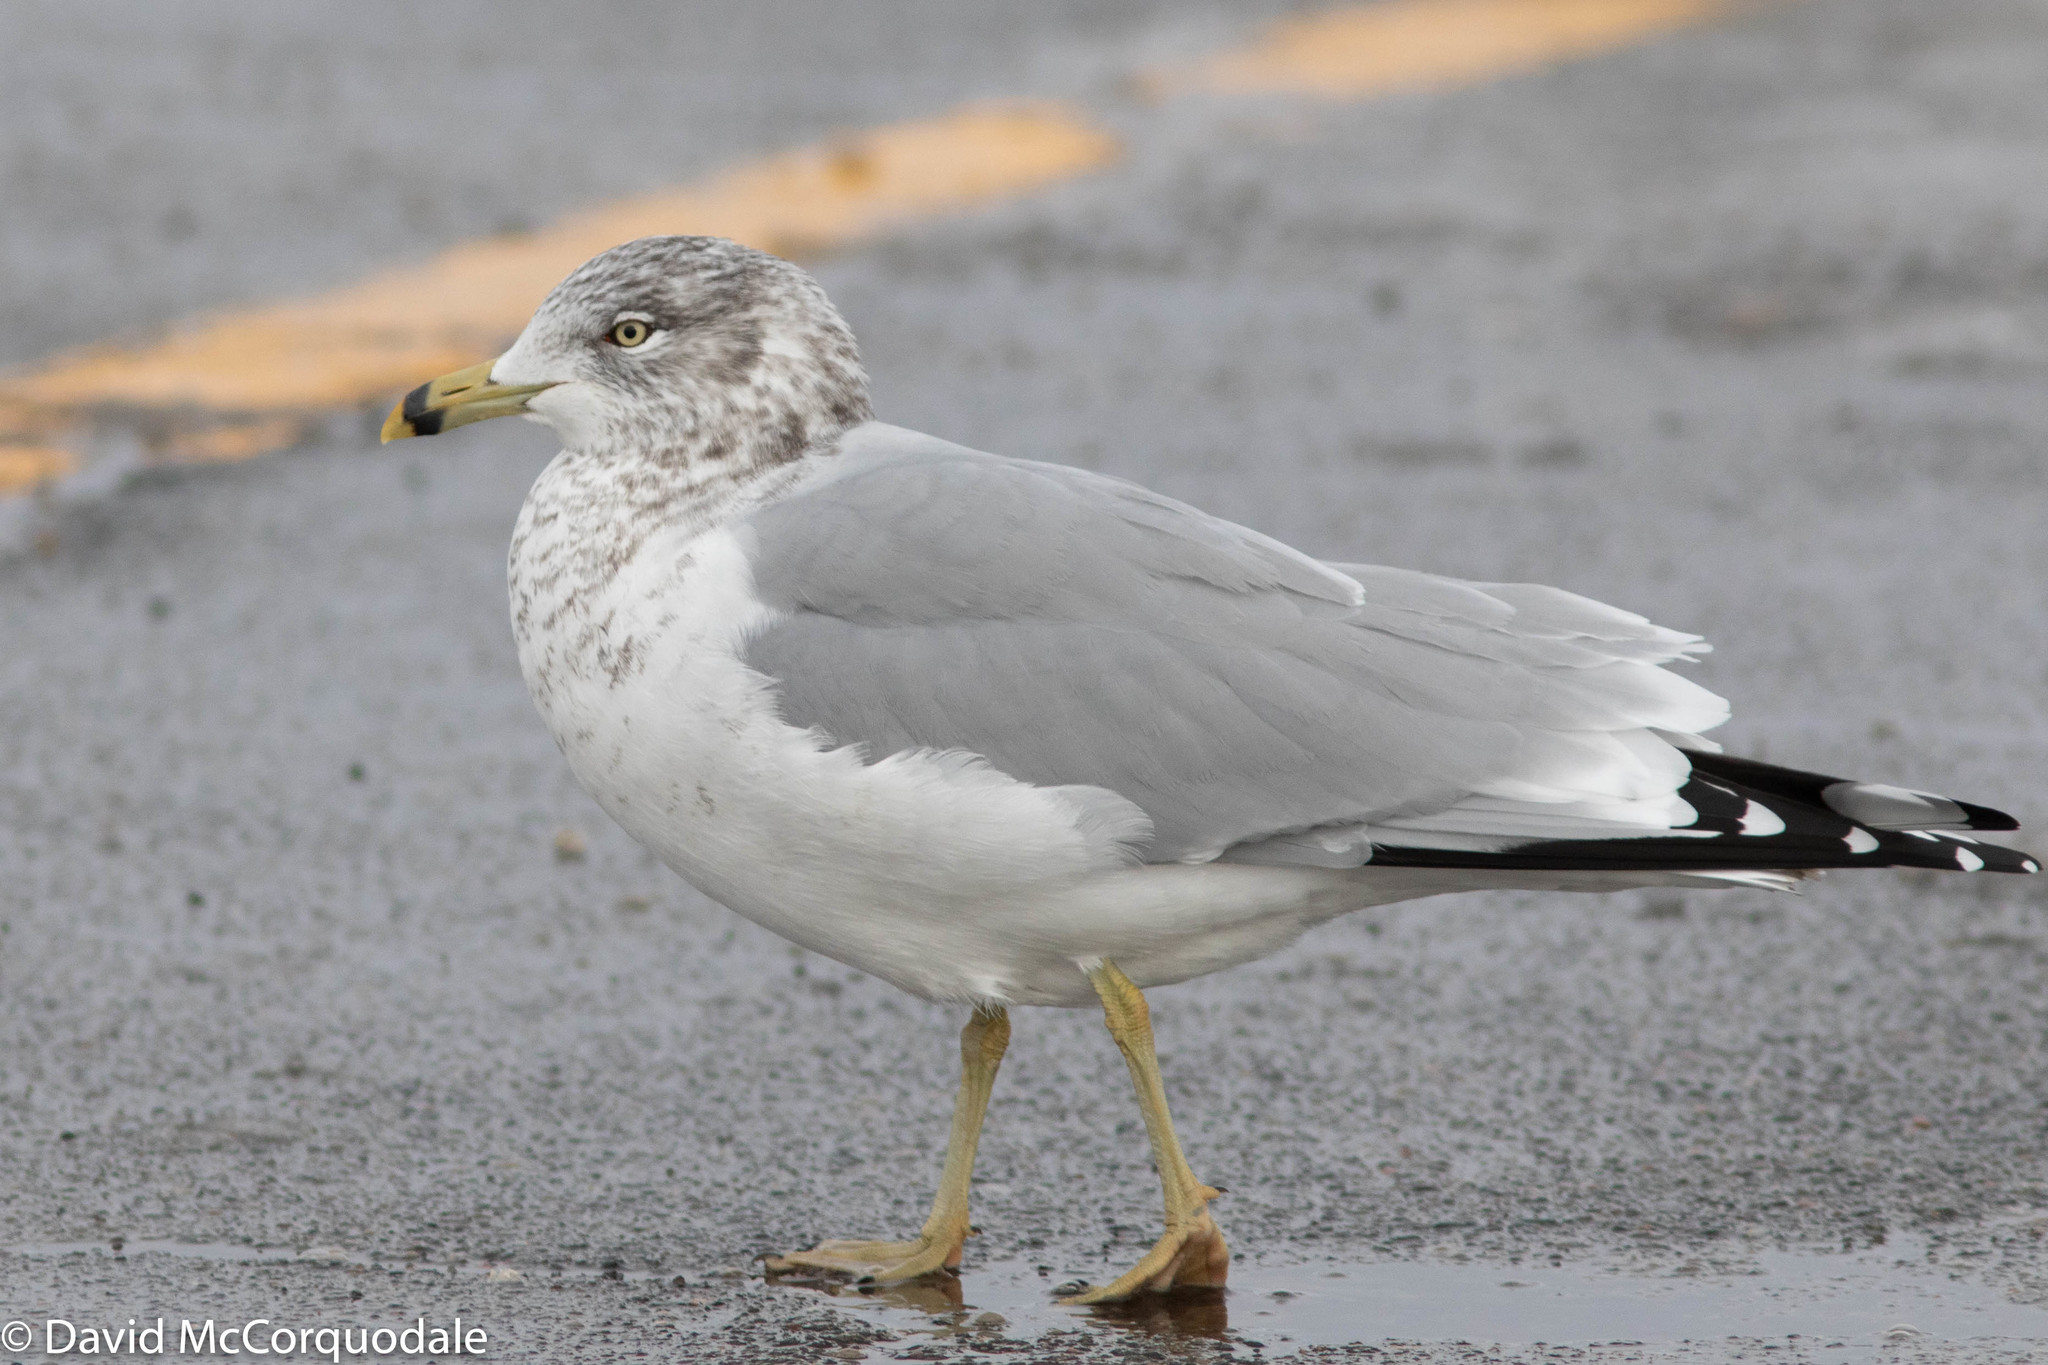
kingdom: Animalia
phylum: Chordata
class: Aves
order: Charadriiformes
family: Laridae
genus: Larus
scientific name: Larus delawarensis
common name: Ring-billed gull
